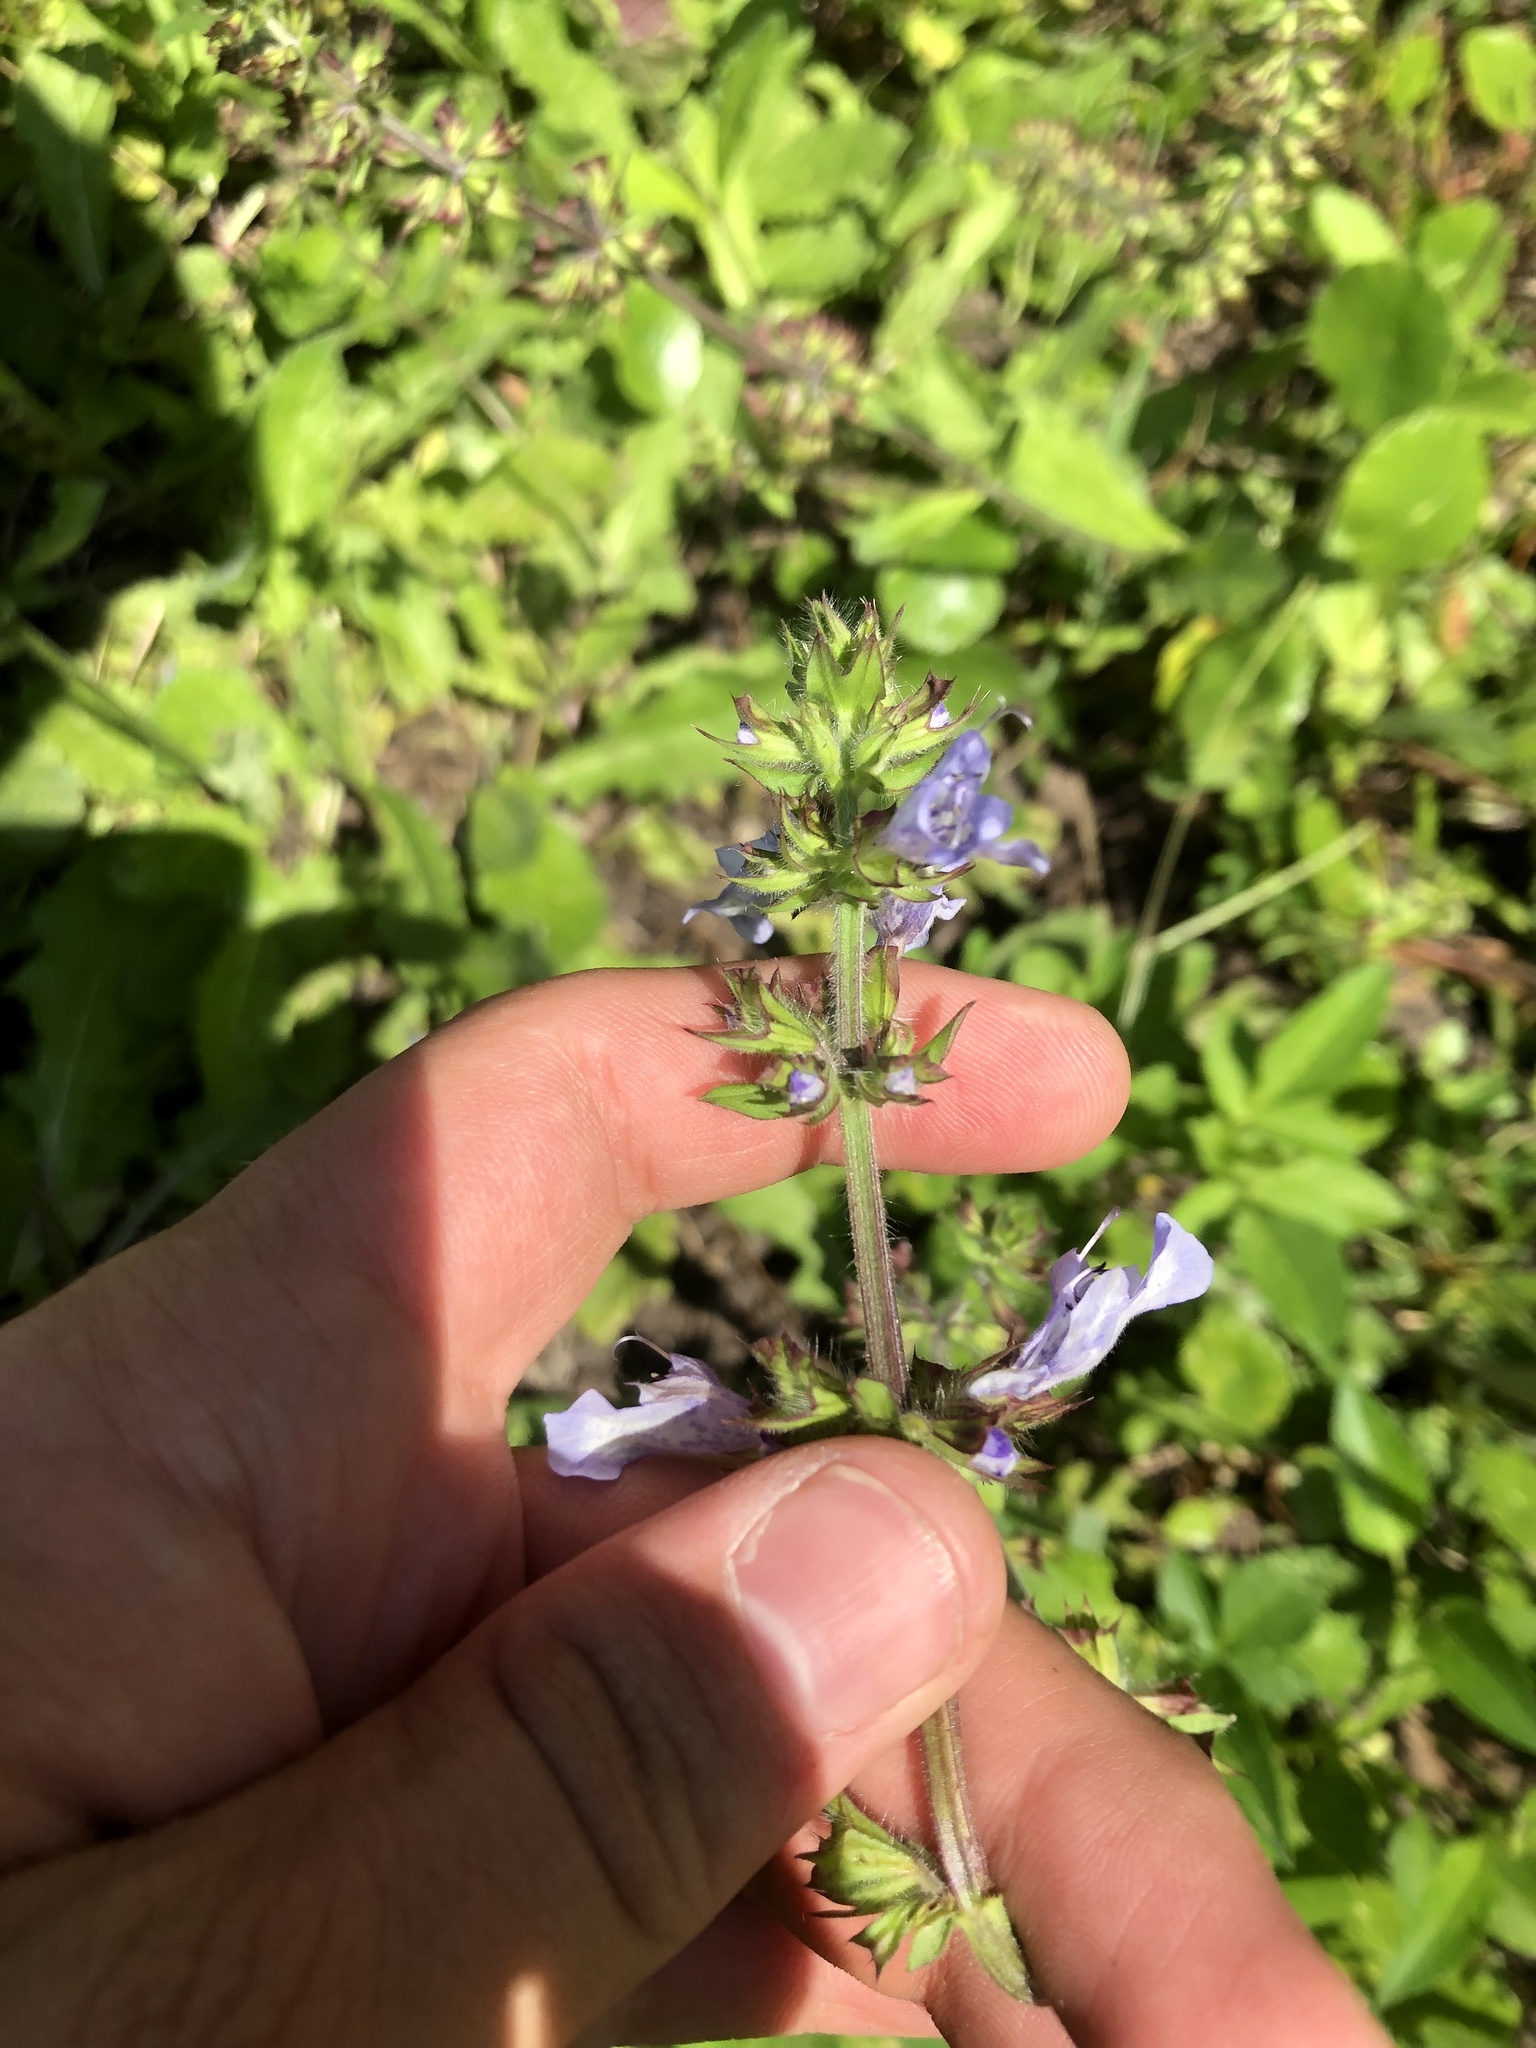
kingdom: Plantae
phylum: Tracheophyta
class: Magnoliopsida
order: Lamiales
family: Lamiaceae
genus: Salvia
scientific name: Salvia lyrata
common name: Cancerweed
